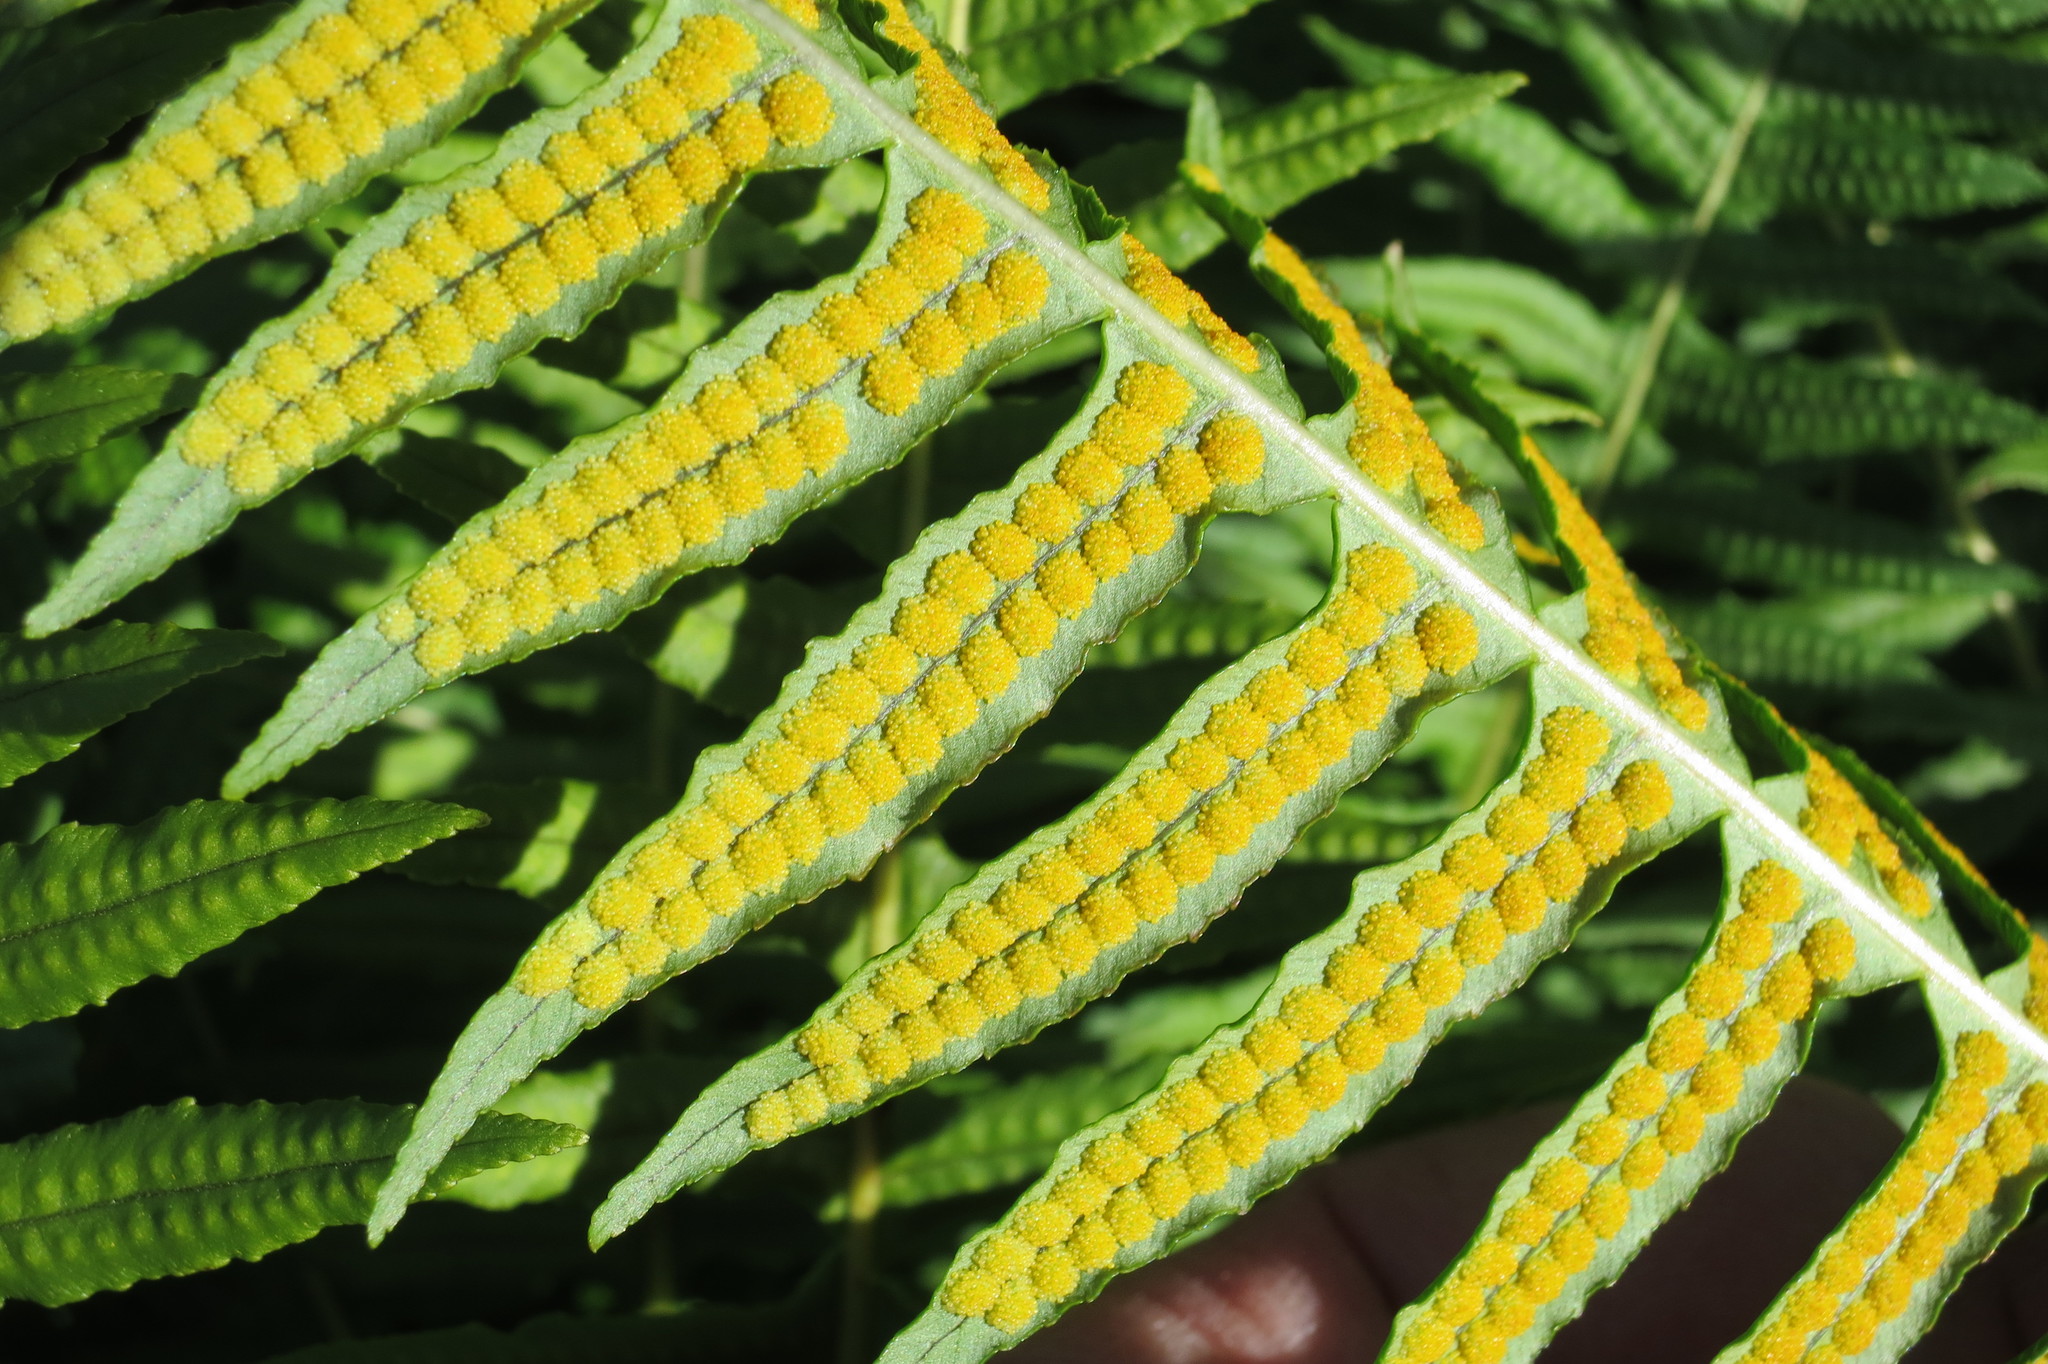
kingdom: Plantae
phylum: Tracheophyta
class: Polypodiopsida
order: Polypodiales
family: Polypodiaceae
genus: Polypodium
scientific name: Polypodium glycyrrhiza
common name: Licorice fern
